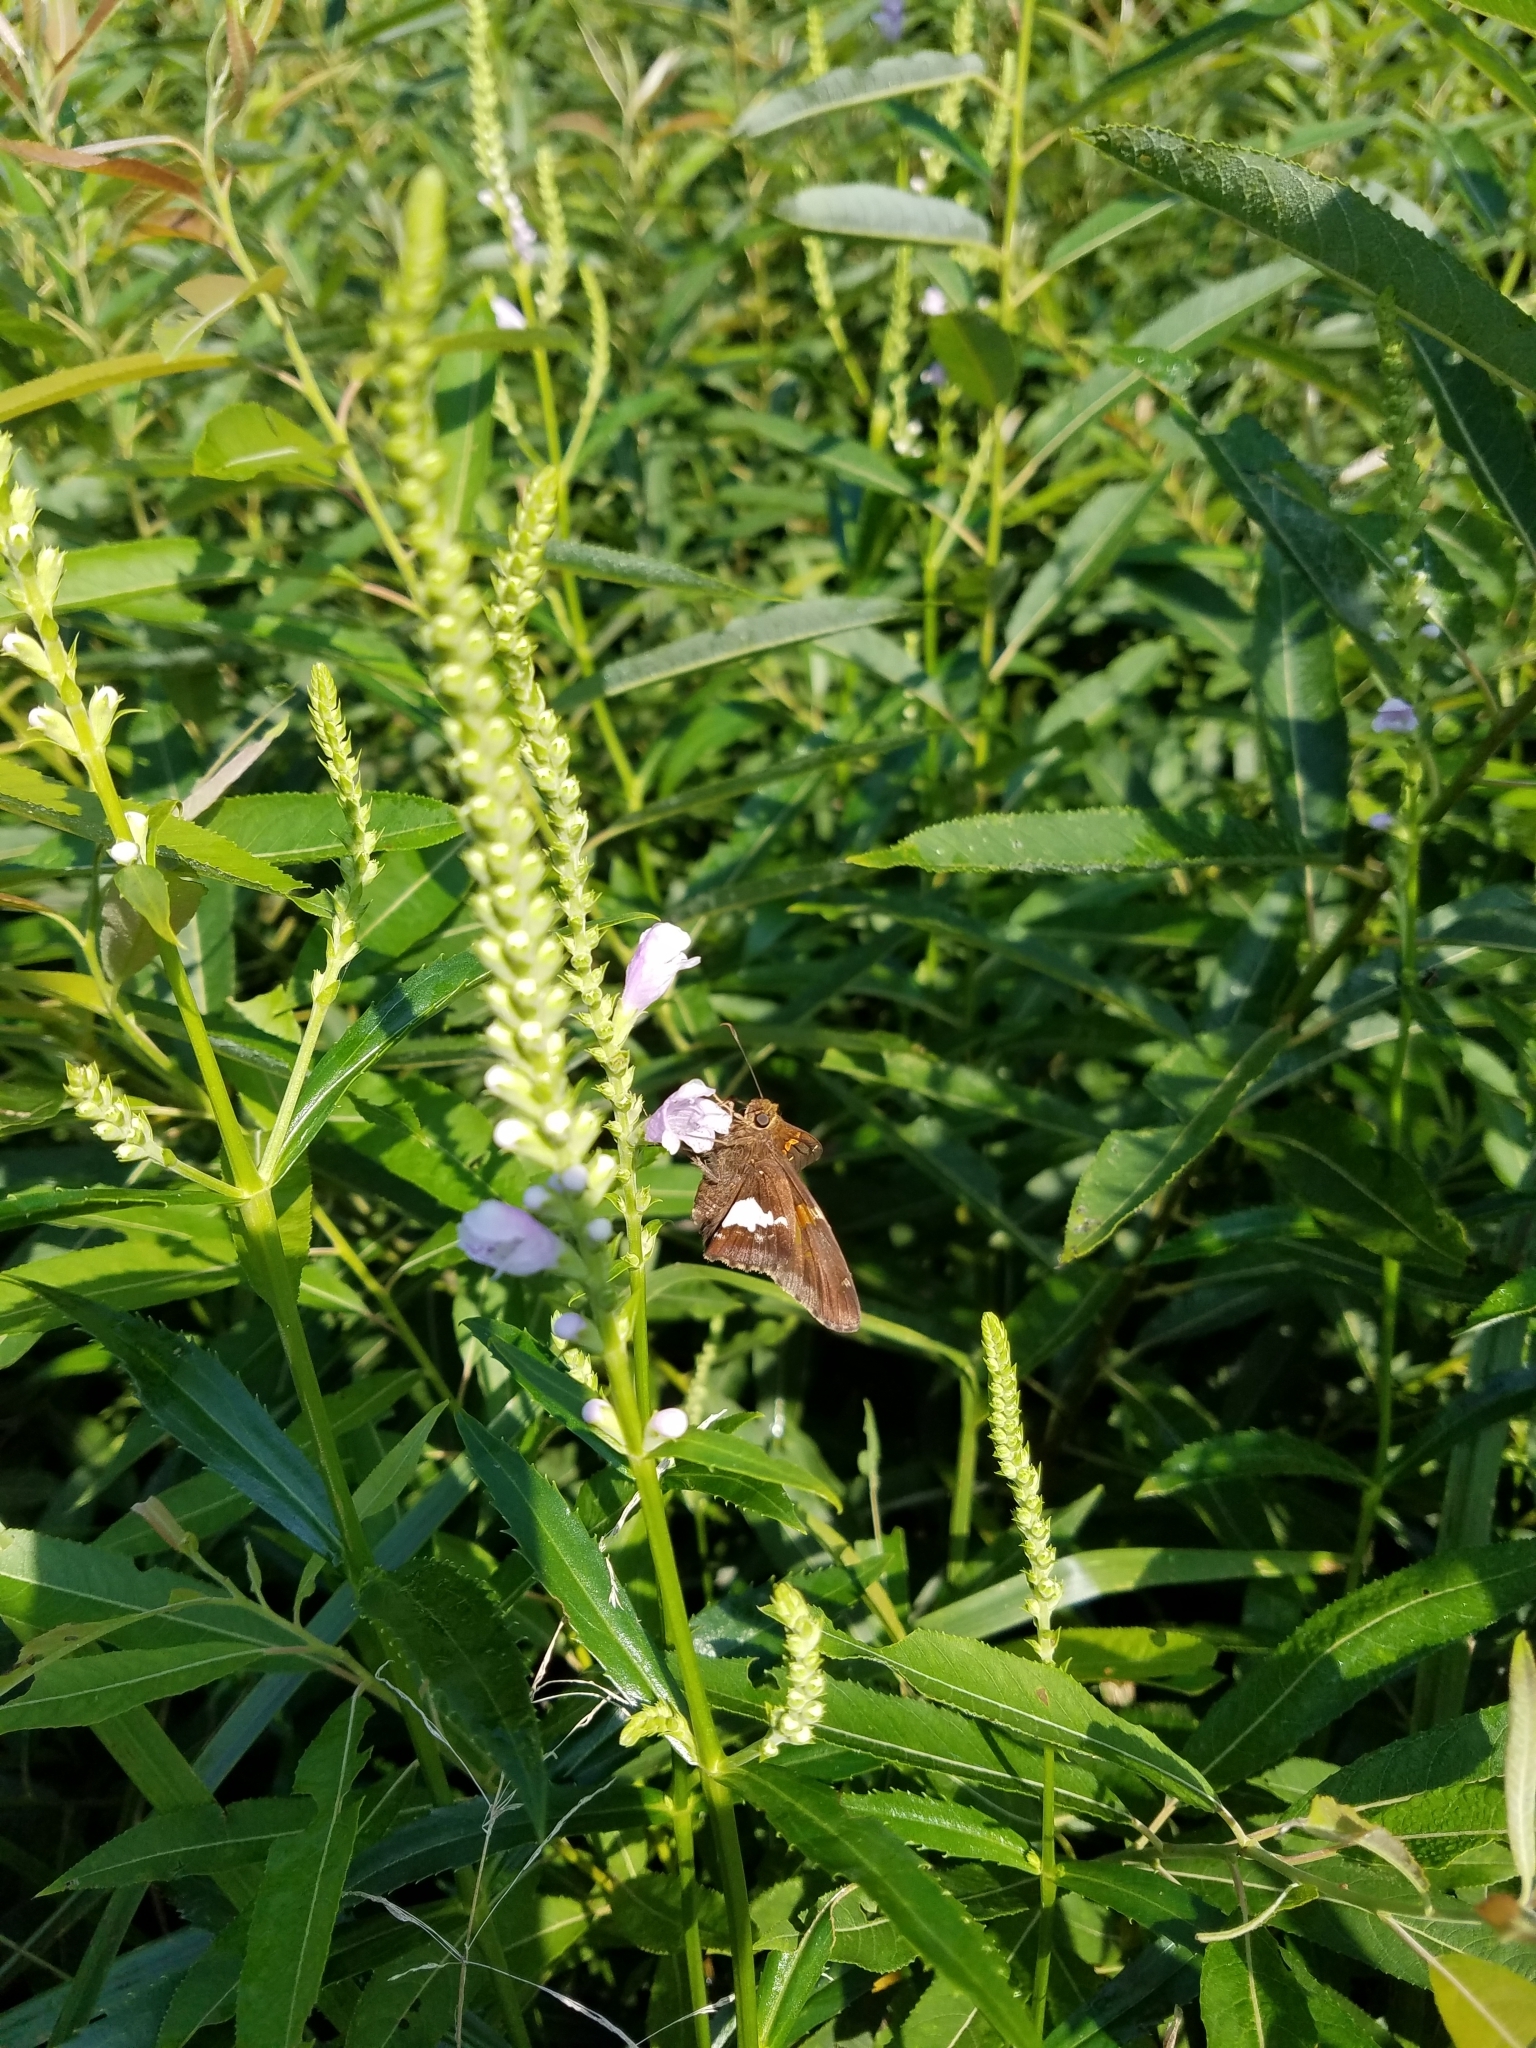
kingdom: Animalia
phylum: Arthropoda
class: Insecta
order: Lepidoptera
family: Hesperiidae
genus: Epargyreus
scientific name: Epargyreus clarus
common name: Silver-spotted skipper
